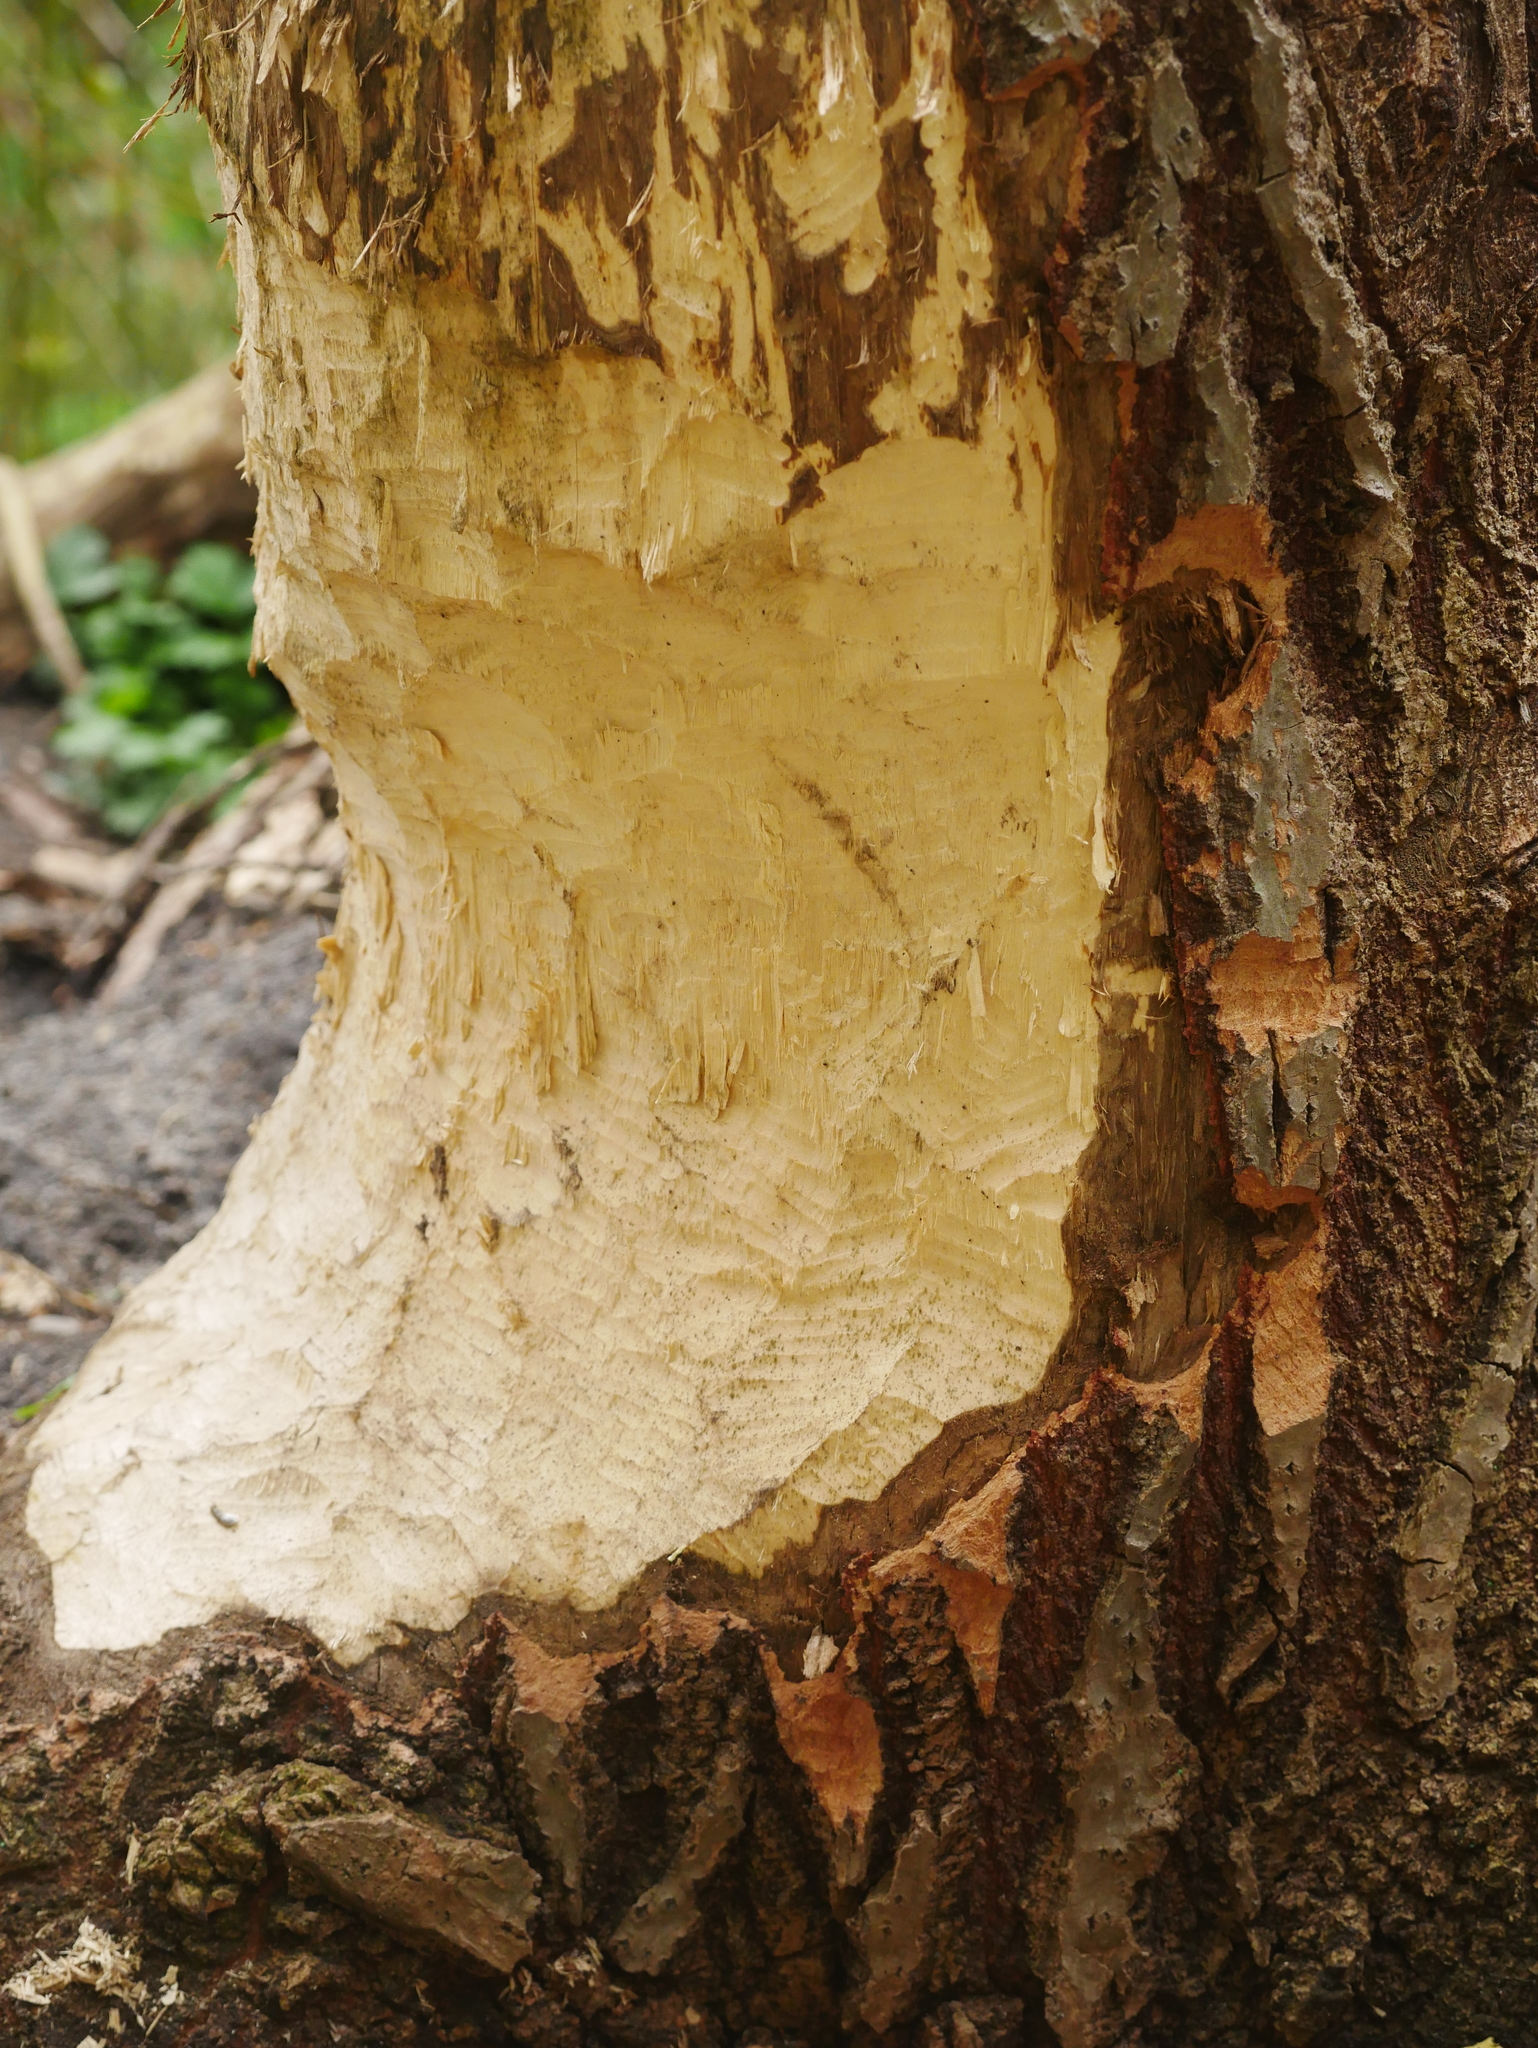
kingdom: Animalia
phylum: Chordata
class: Mammalia
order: Rodentia
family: Castoridae
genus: Castor
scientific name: Castor fiber
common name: Eurasian beaver
